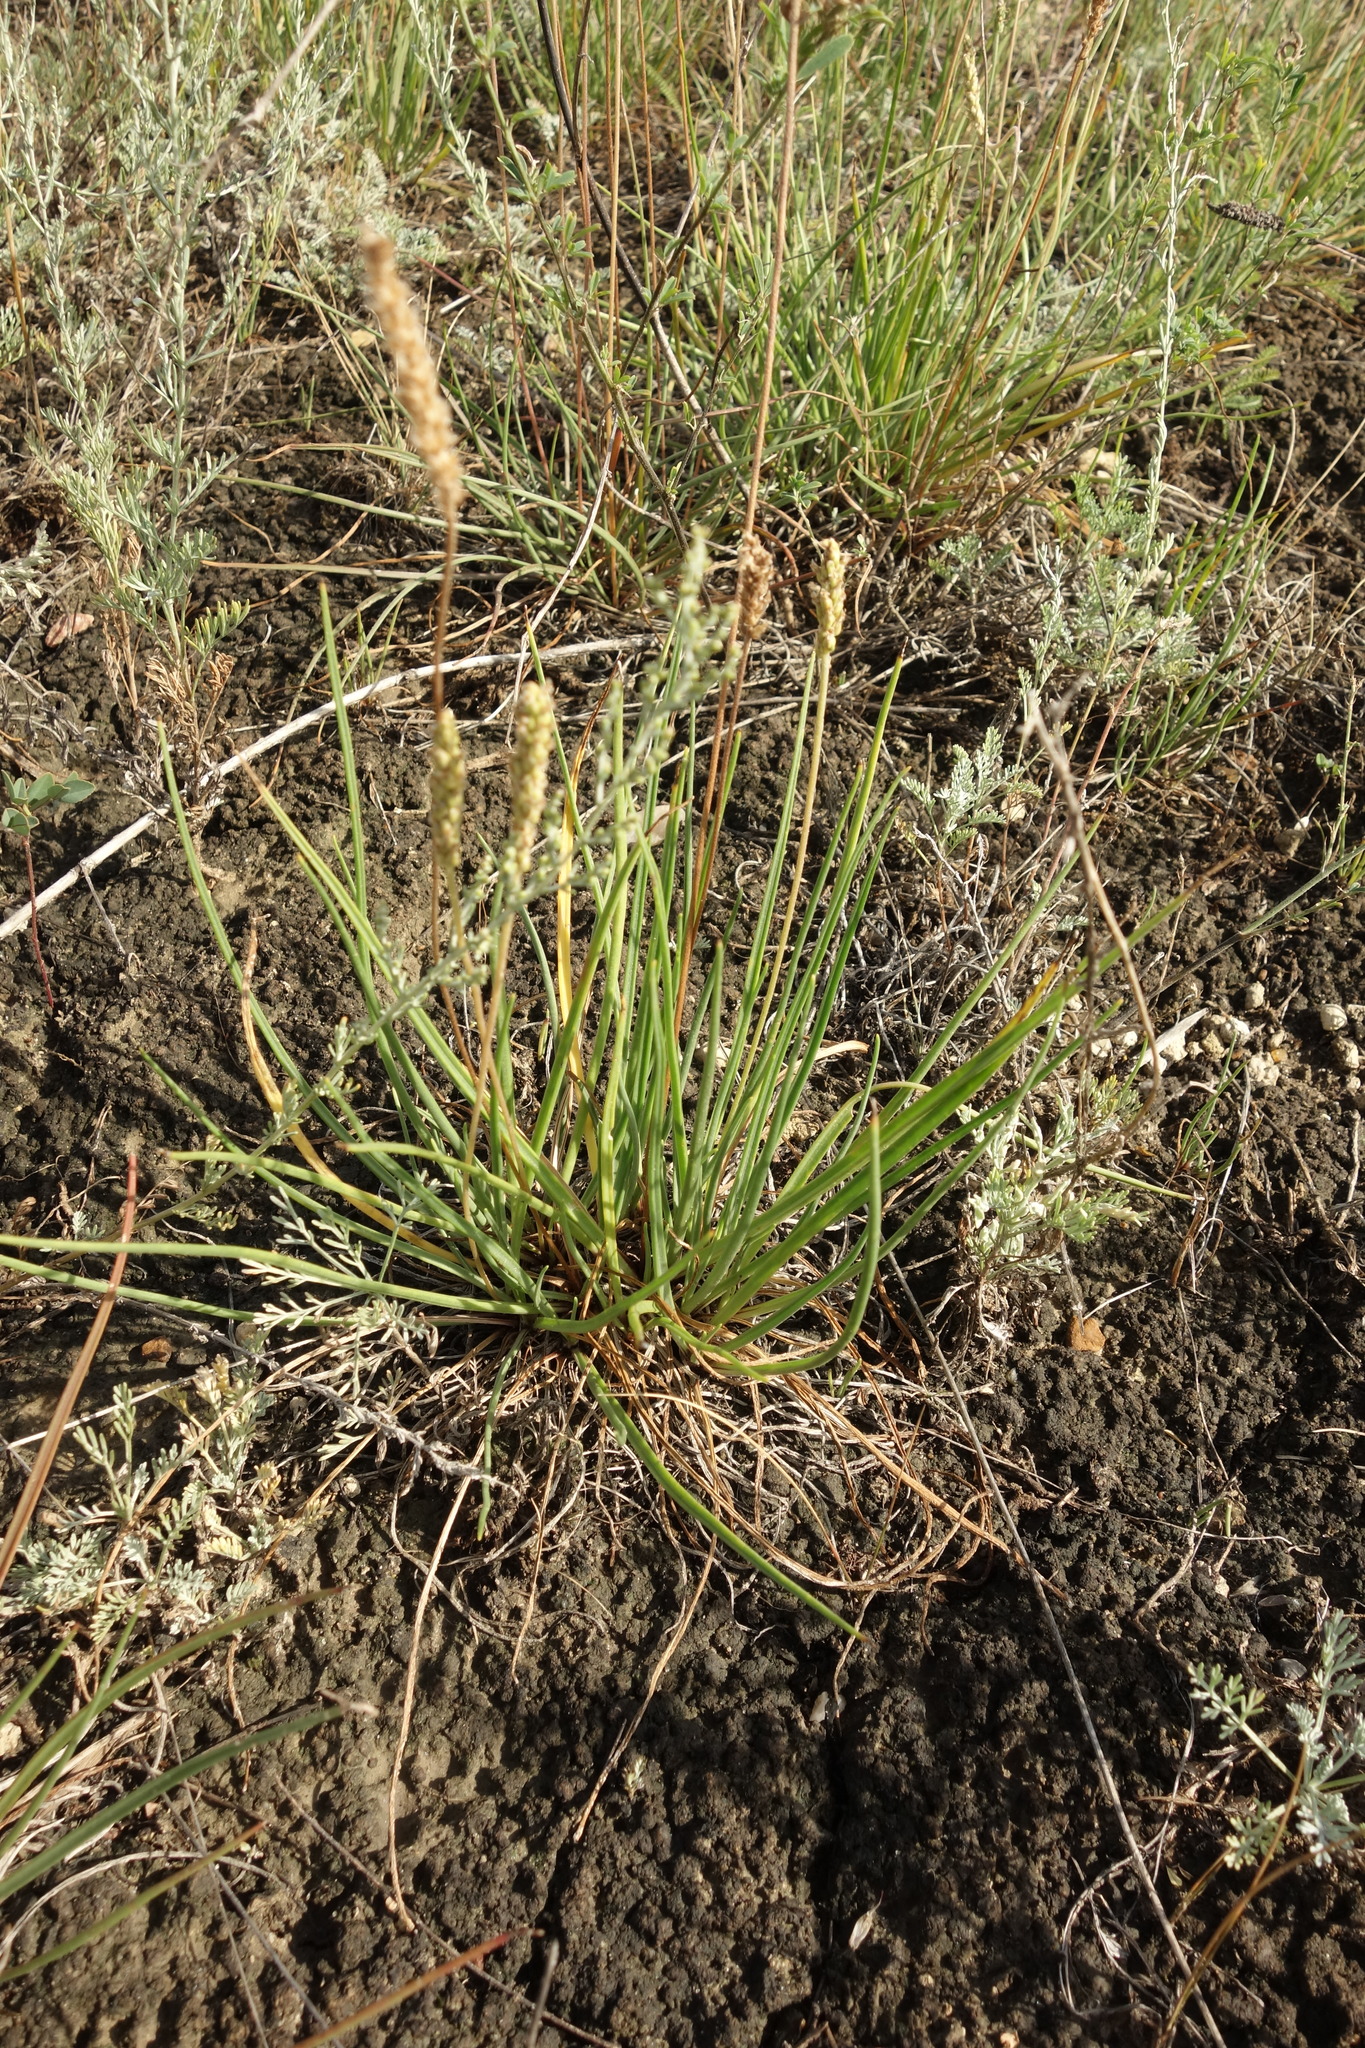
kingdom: Plantae
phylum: Tracheophyta
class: Magnoliopsida
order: Lamiales
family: Plantaginaceae
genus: Plantago
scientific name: Plantago salsa
